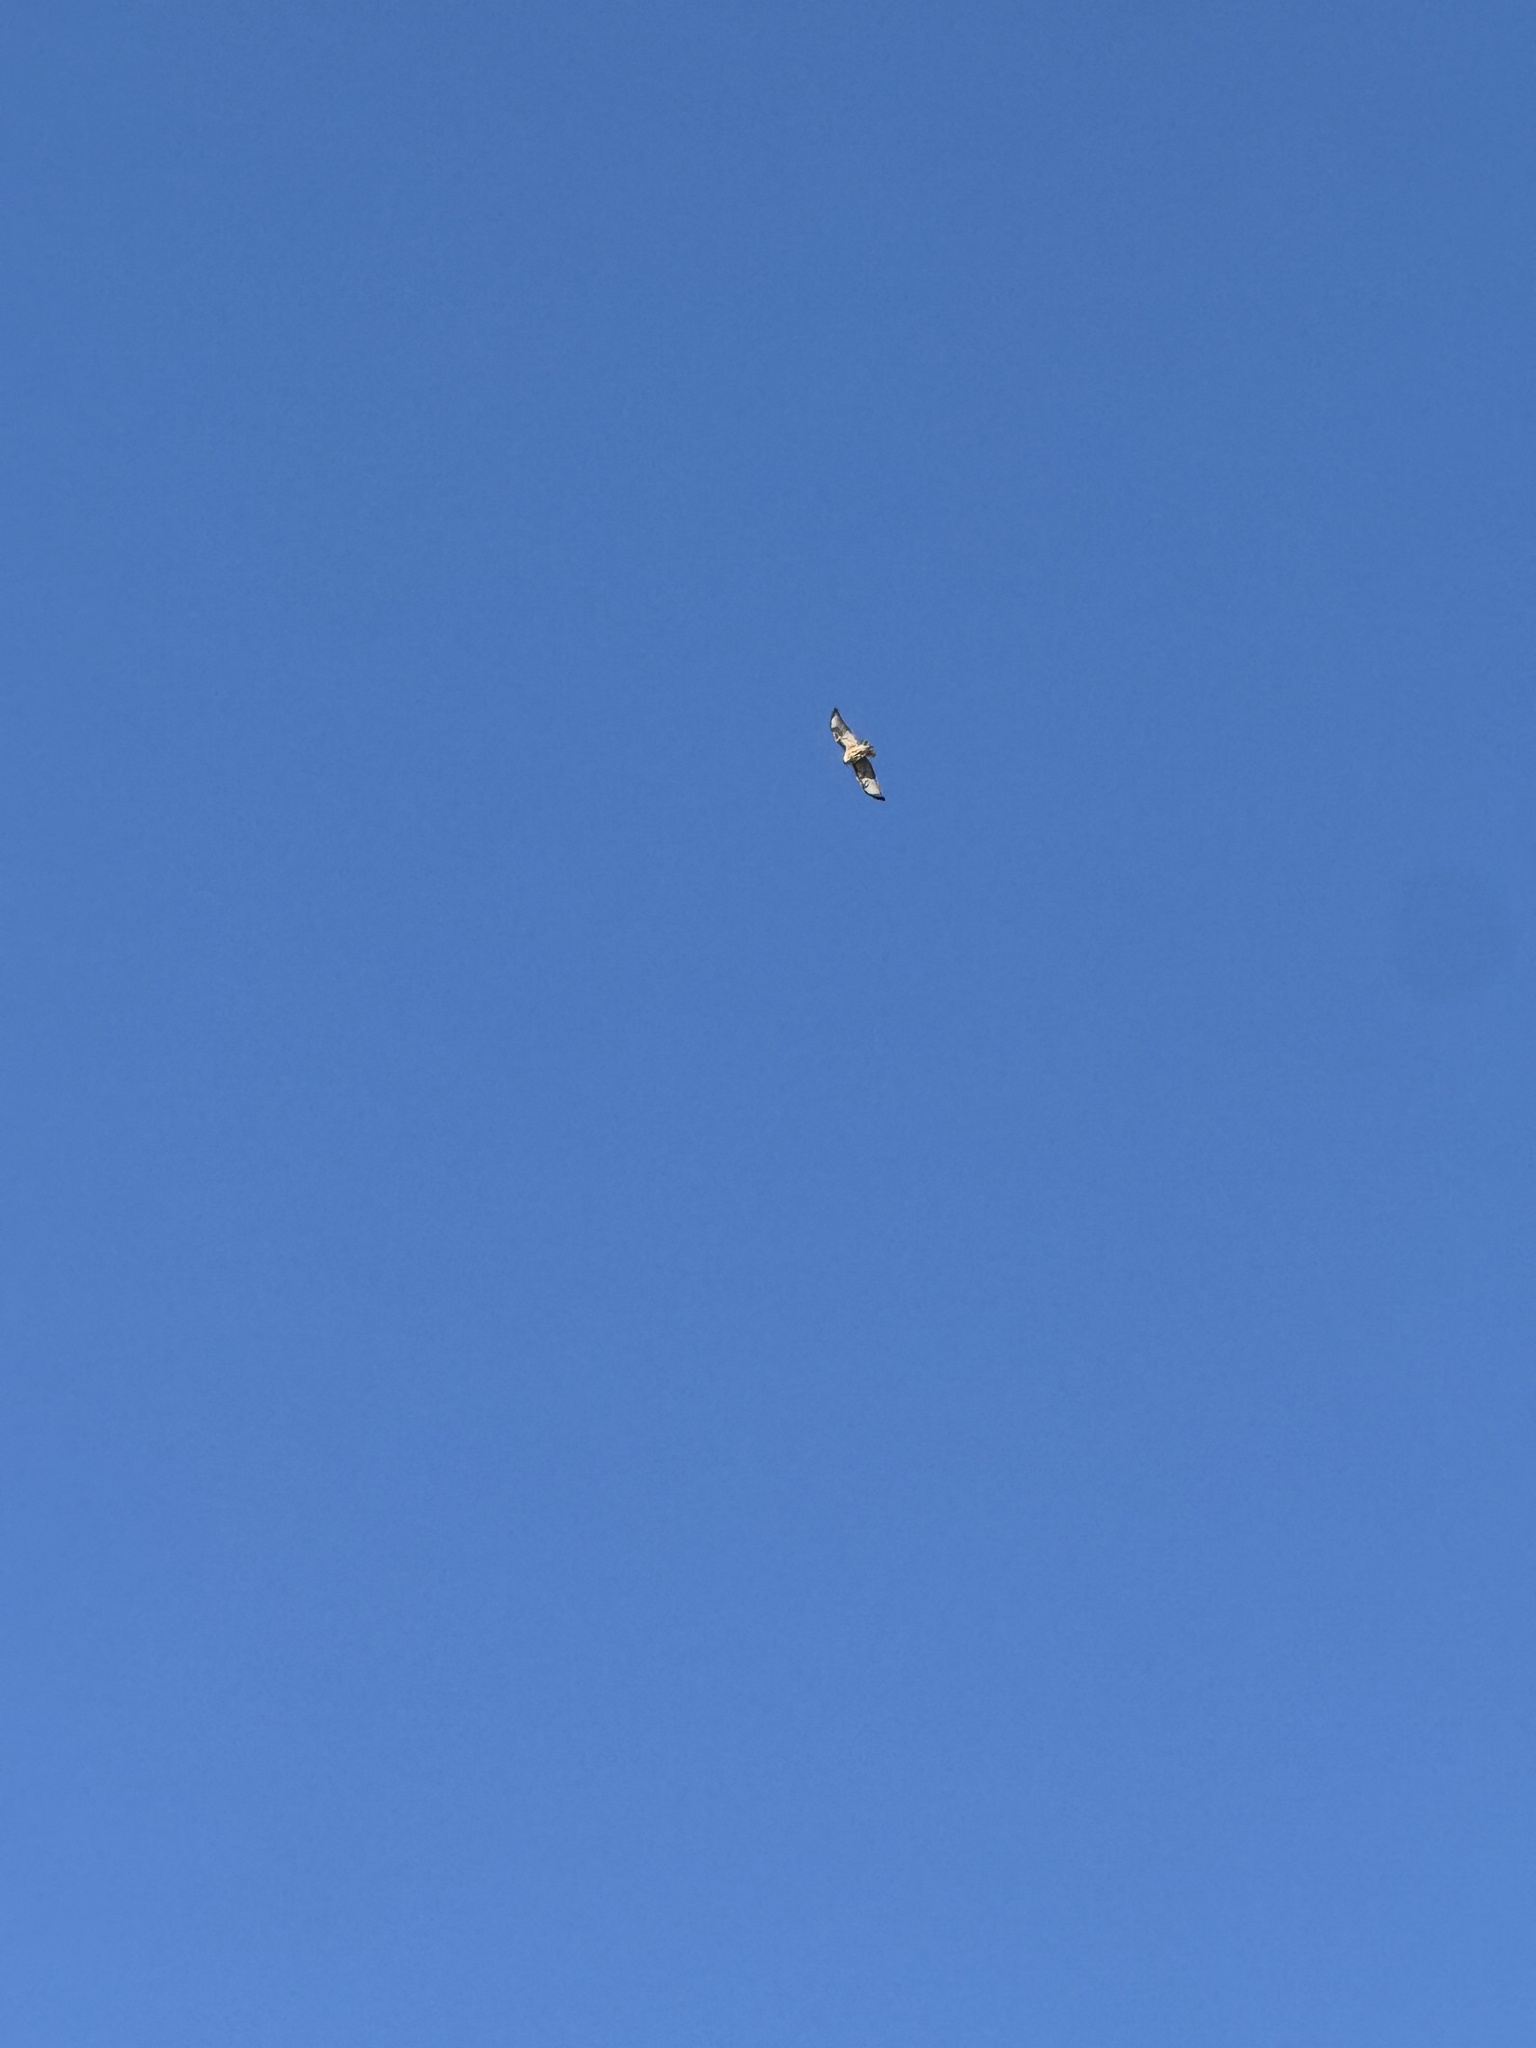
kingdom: Animalia
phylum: Chordata
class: Aves
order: Accipitriformes
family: Accipitridae
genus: Buteo
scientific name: Buteo jamaicensis
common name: Red-tailed hawk
